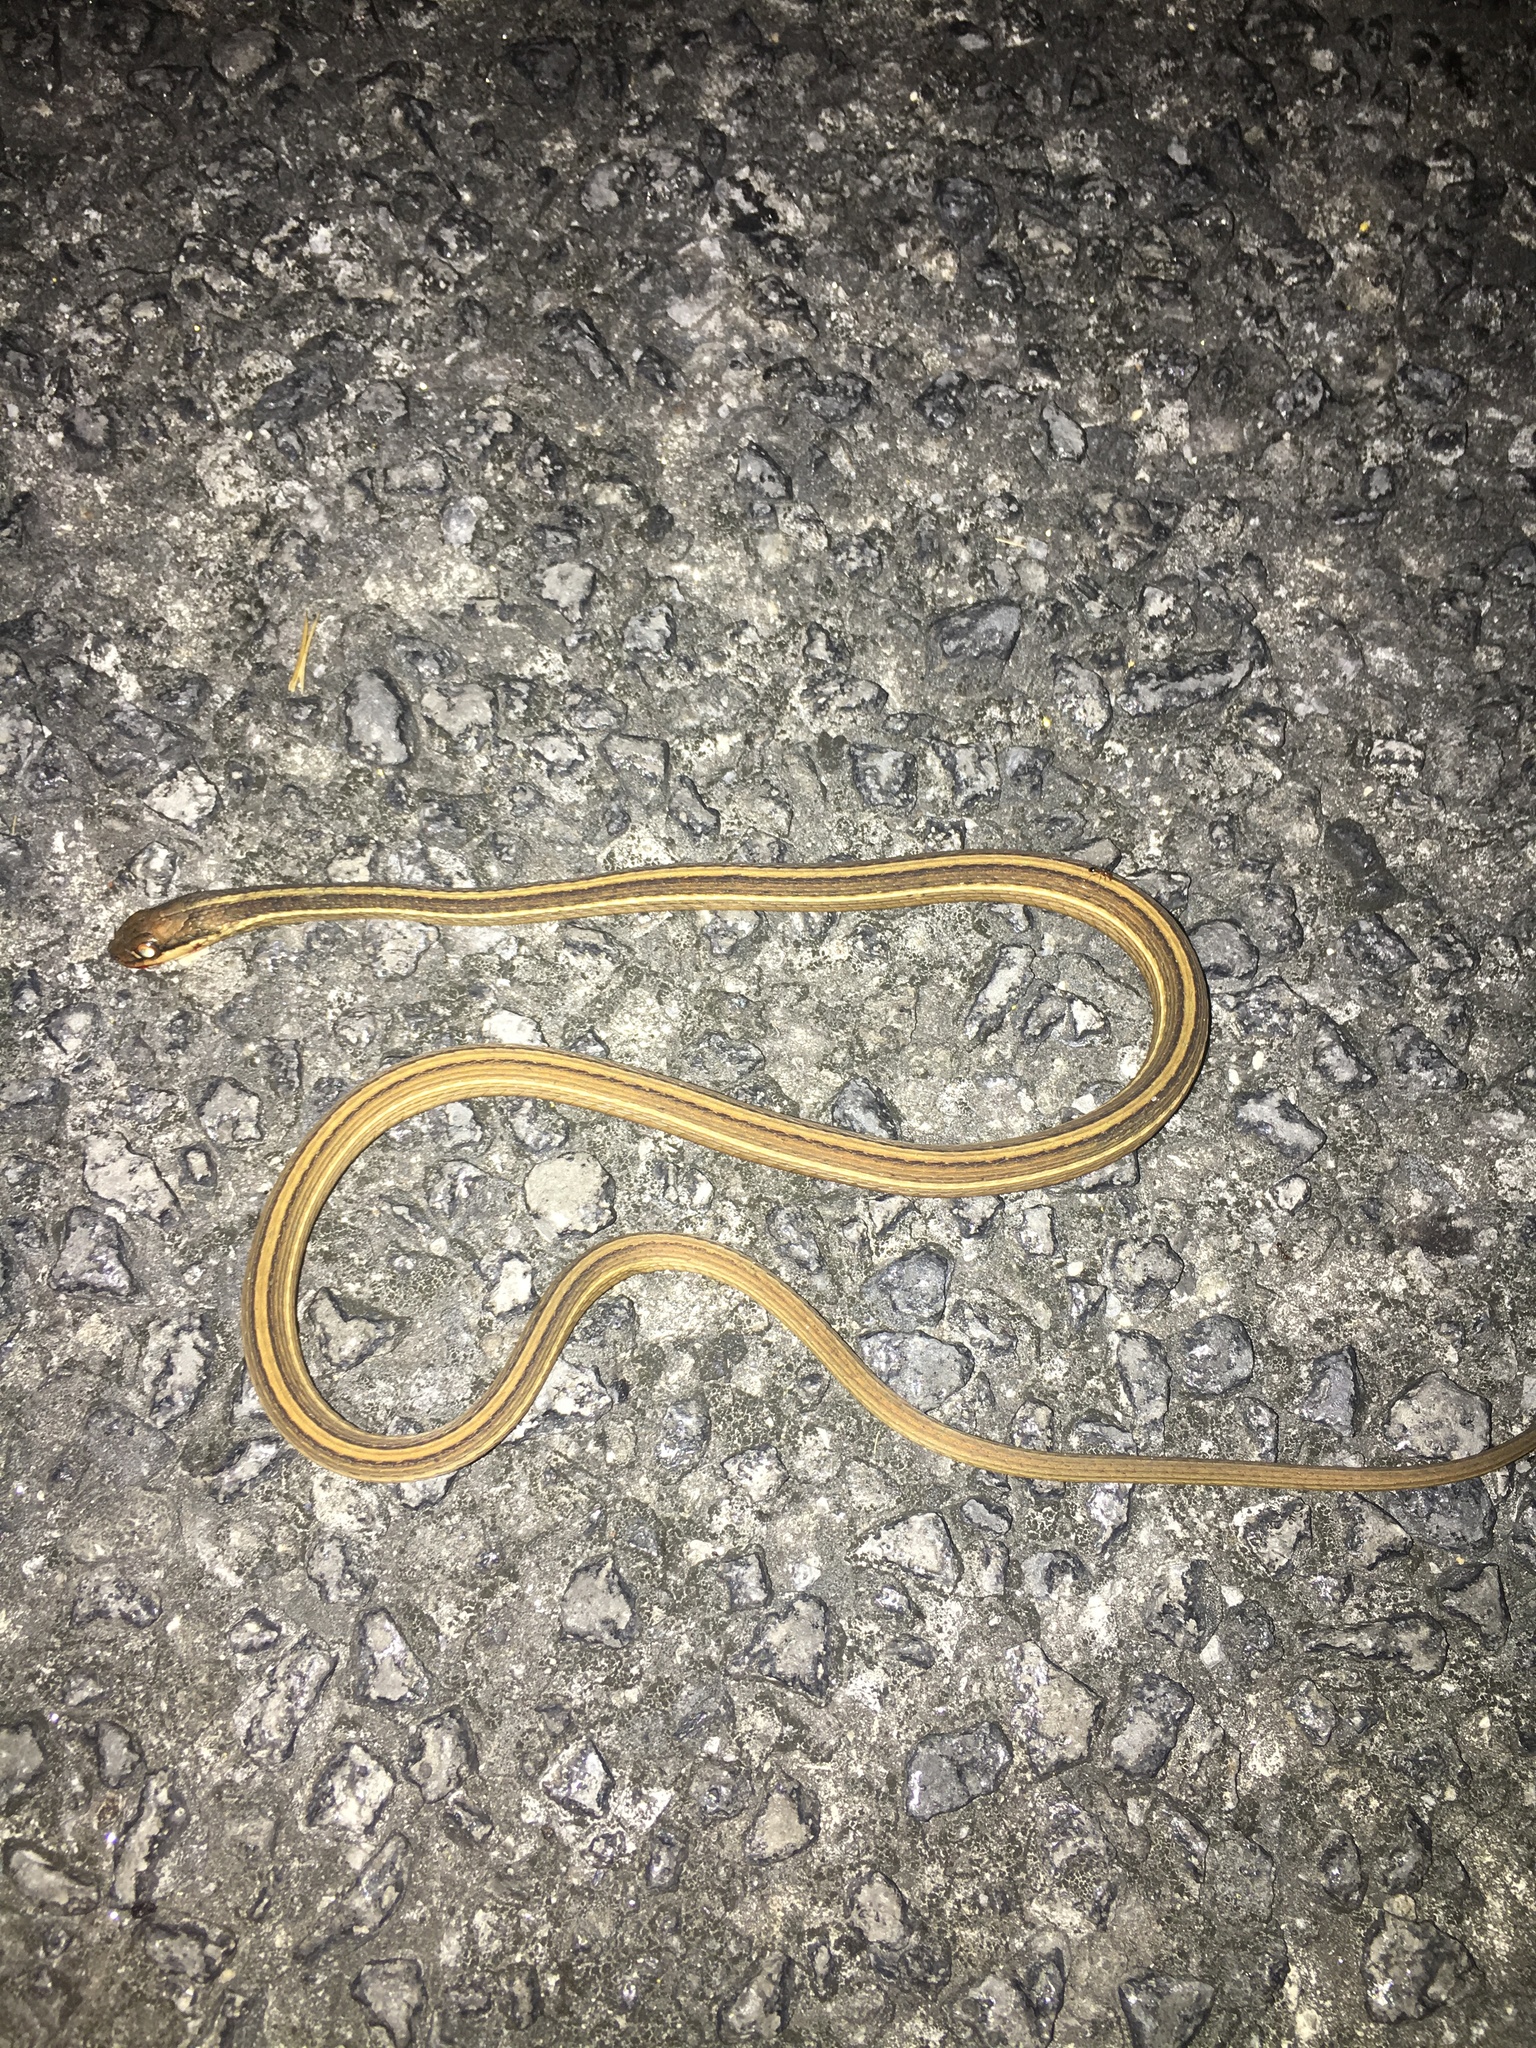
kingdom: Animalia
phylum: Chordata
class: Squamata
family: Colubridae
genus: Thamnophis
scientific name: Thamnophis saurita
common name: Eastern ribbonsnake
